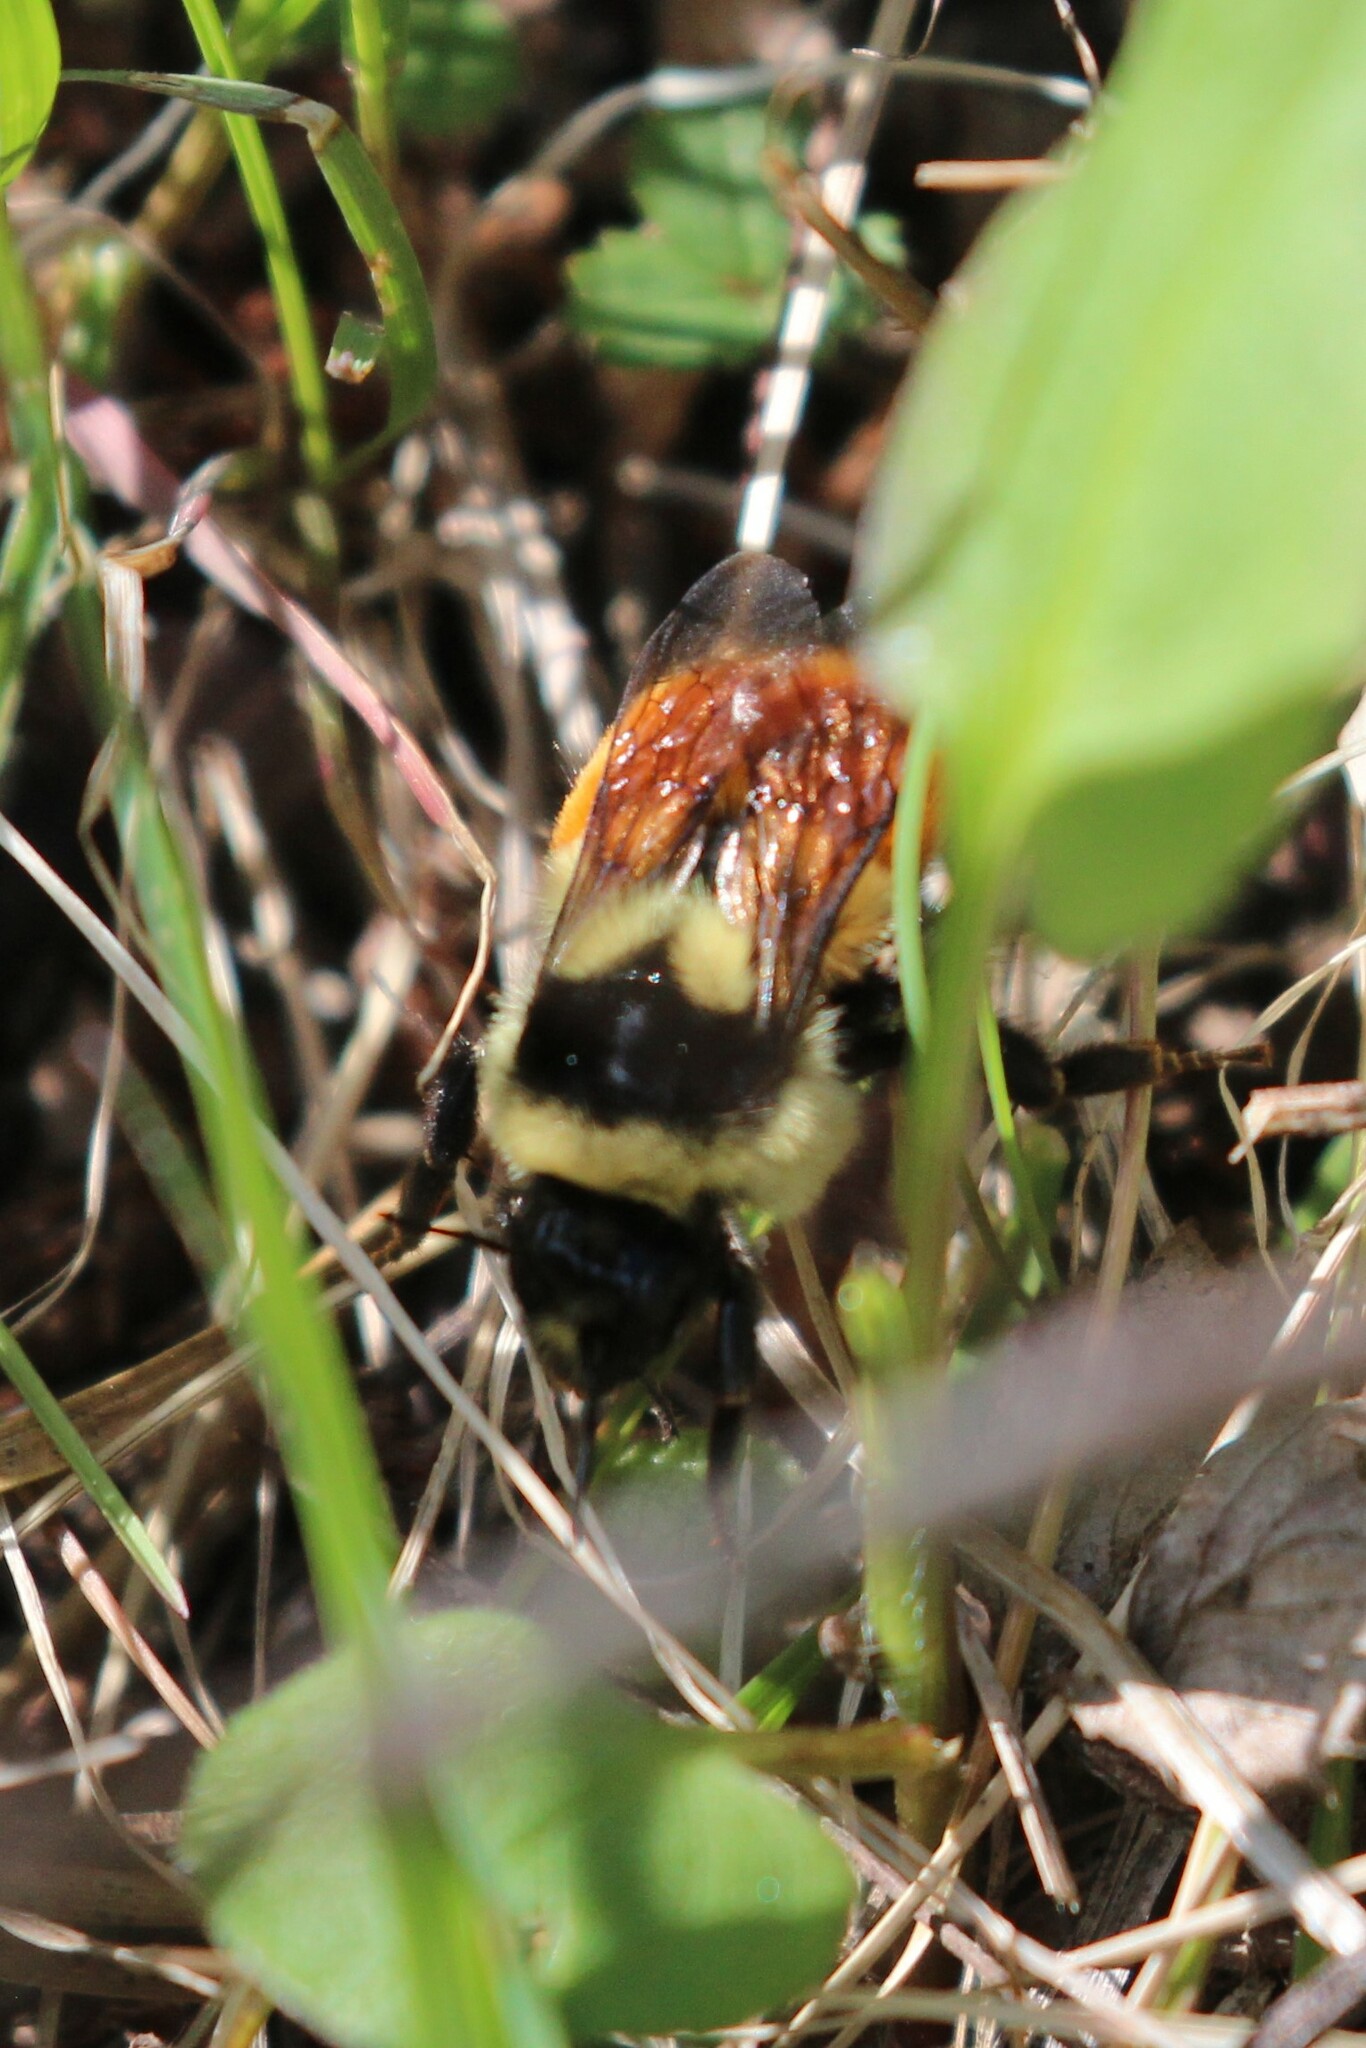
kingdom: Animalia
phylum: Arthropoda
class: Insecta
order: Hymenoptera
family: Apidae
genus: Bombus
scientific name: Bombus ternarius
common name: Tri-colored bumble bee
